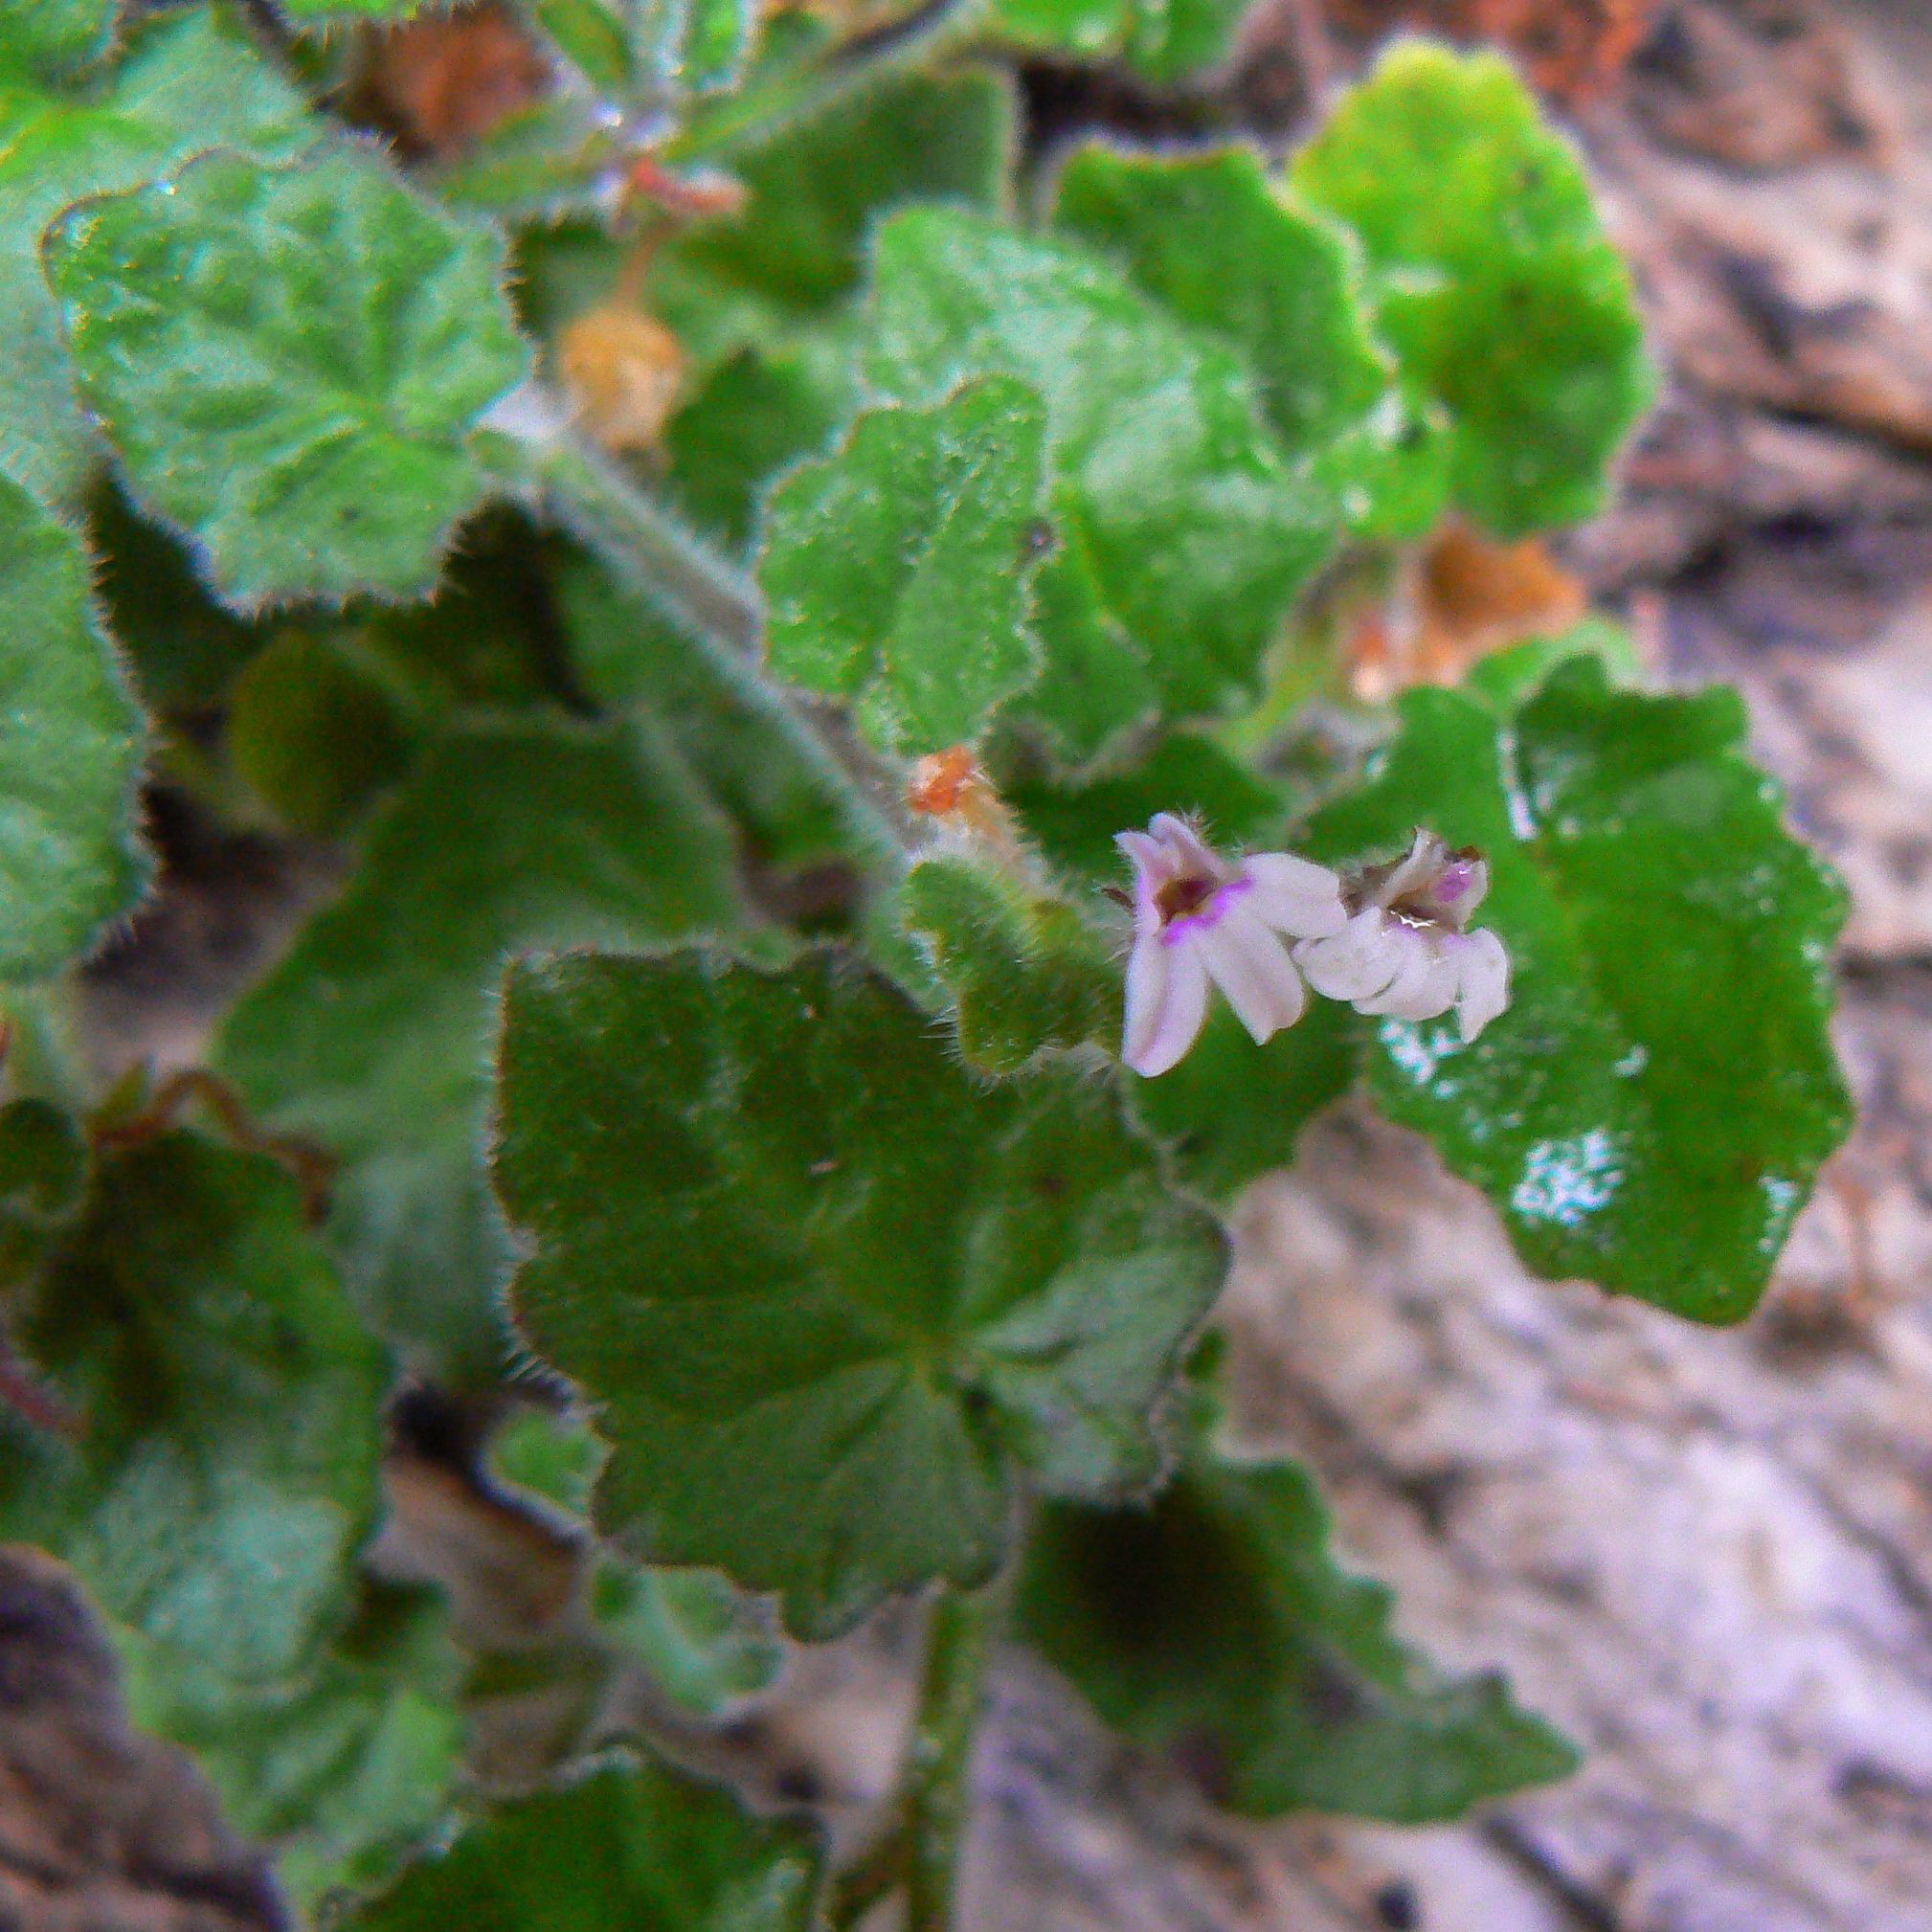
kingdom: Plantae
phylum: Tracheophyta
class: Magnoliopsida
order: Asterales
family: Campanulaceae
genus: Lobelia
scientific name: Lobelia ardisiandroides
